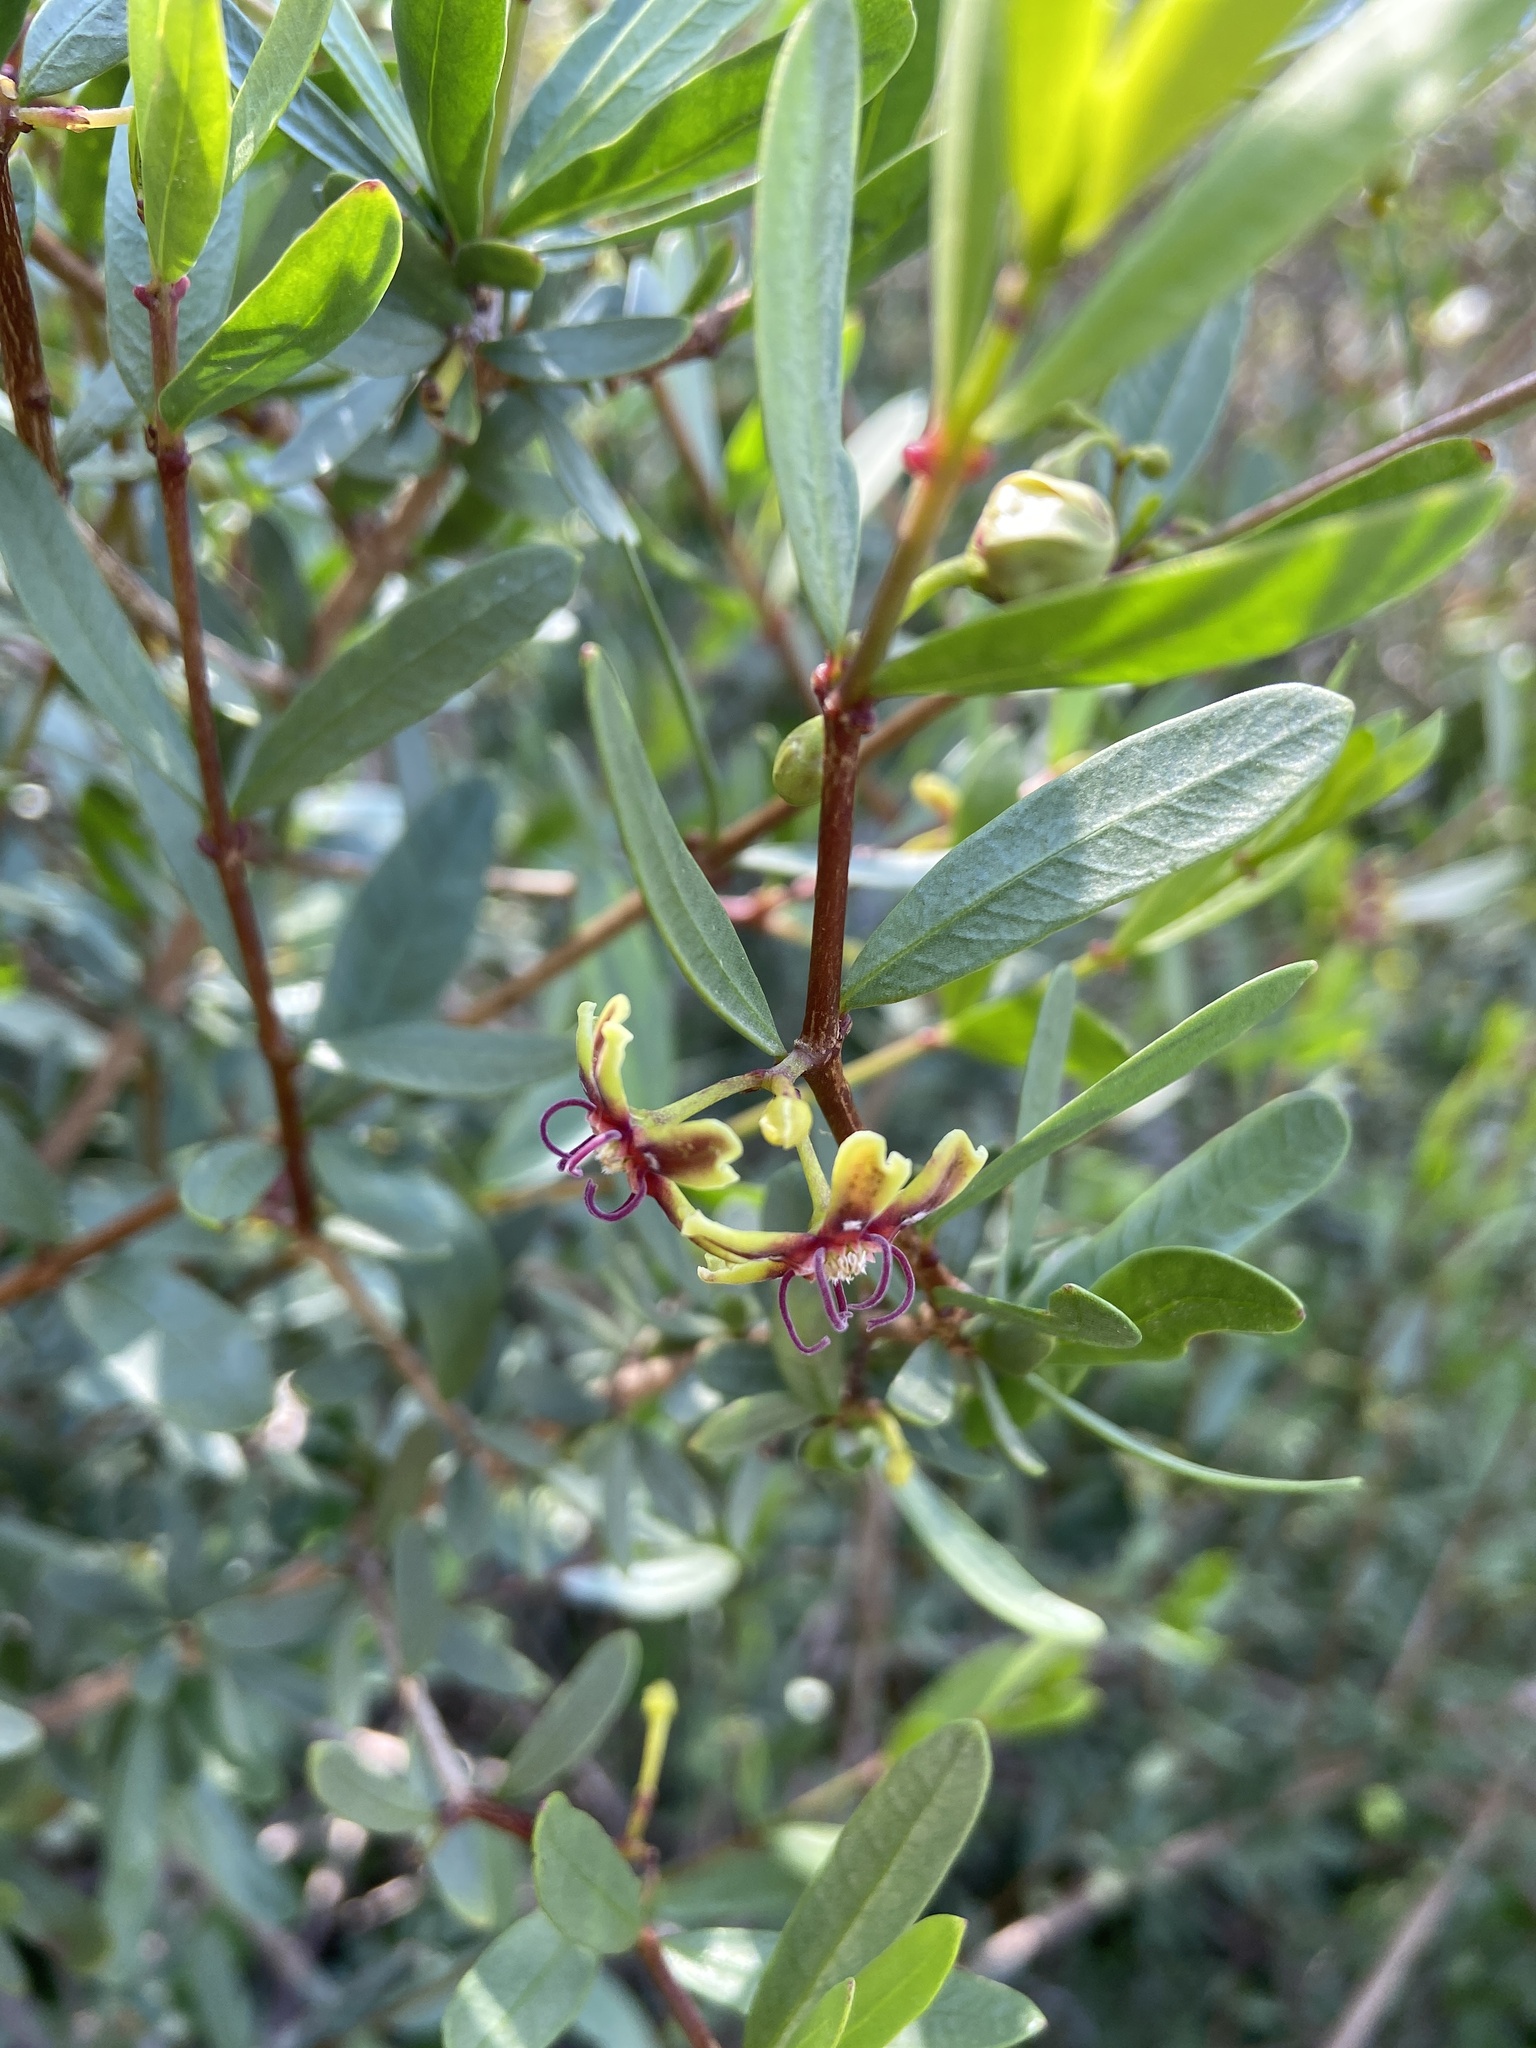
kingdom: Plantae
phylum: Tracheophyta
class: Magnoliopsida
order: Gentianales
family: Apocynaceae
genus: Periploca
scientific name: Periploca laevigata
